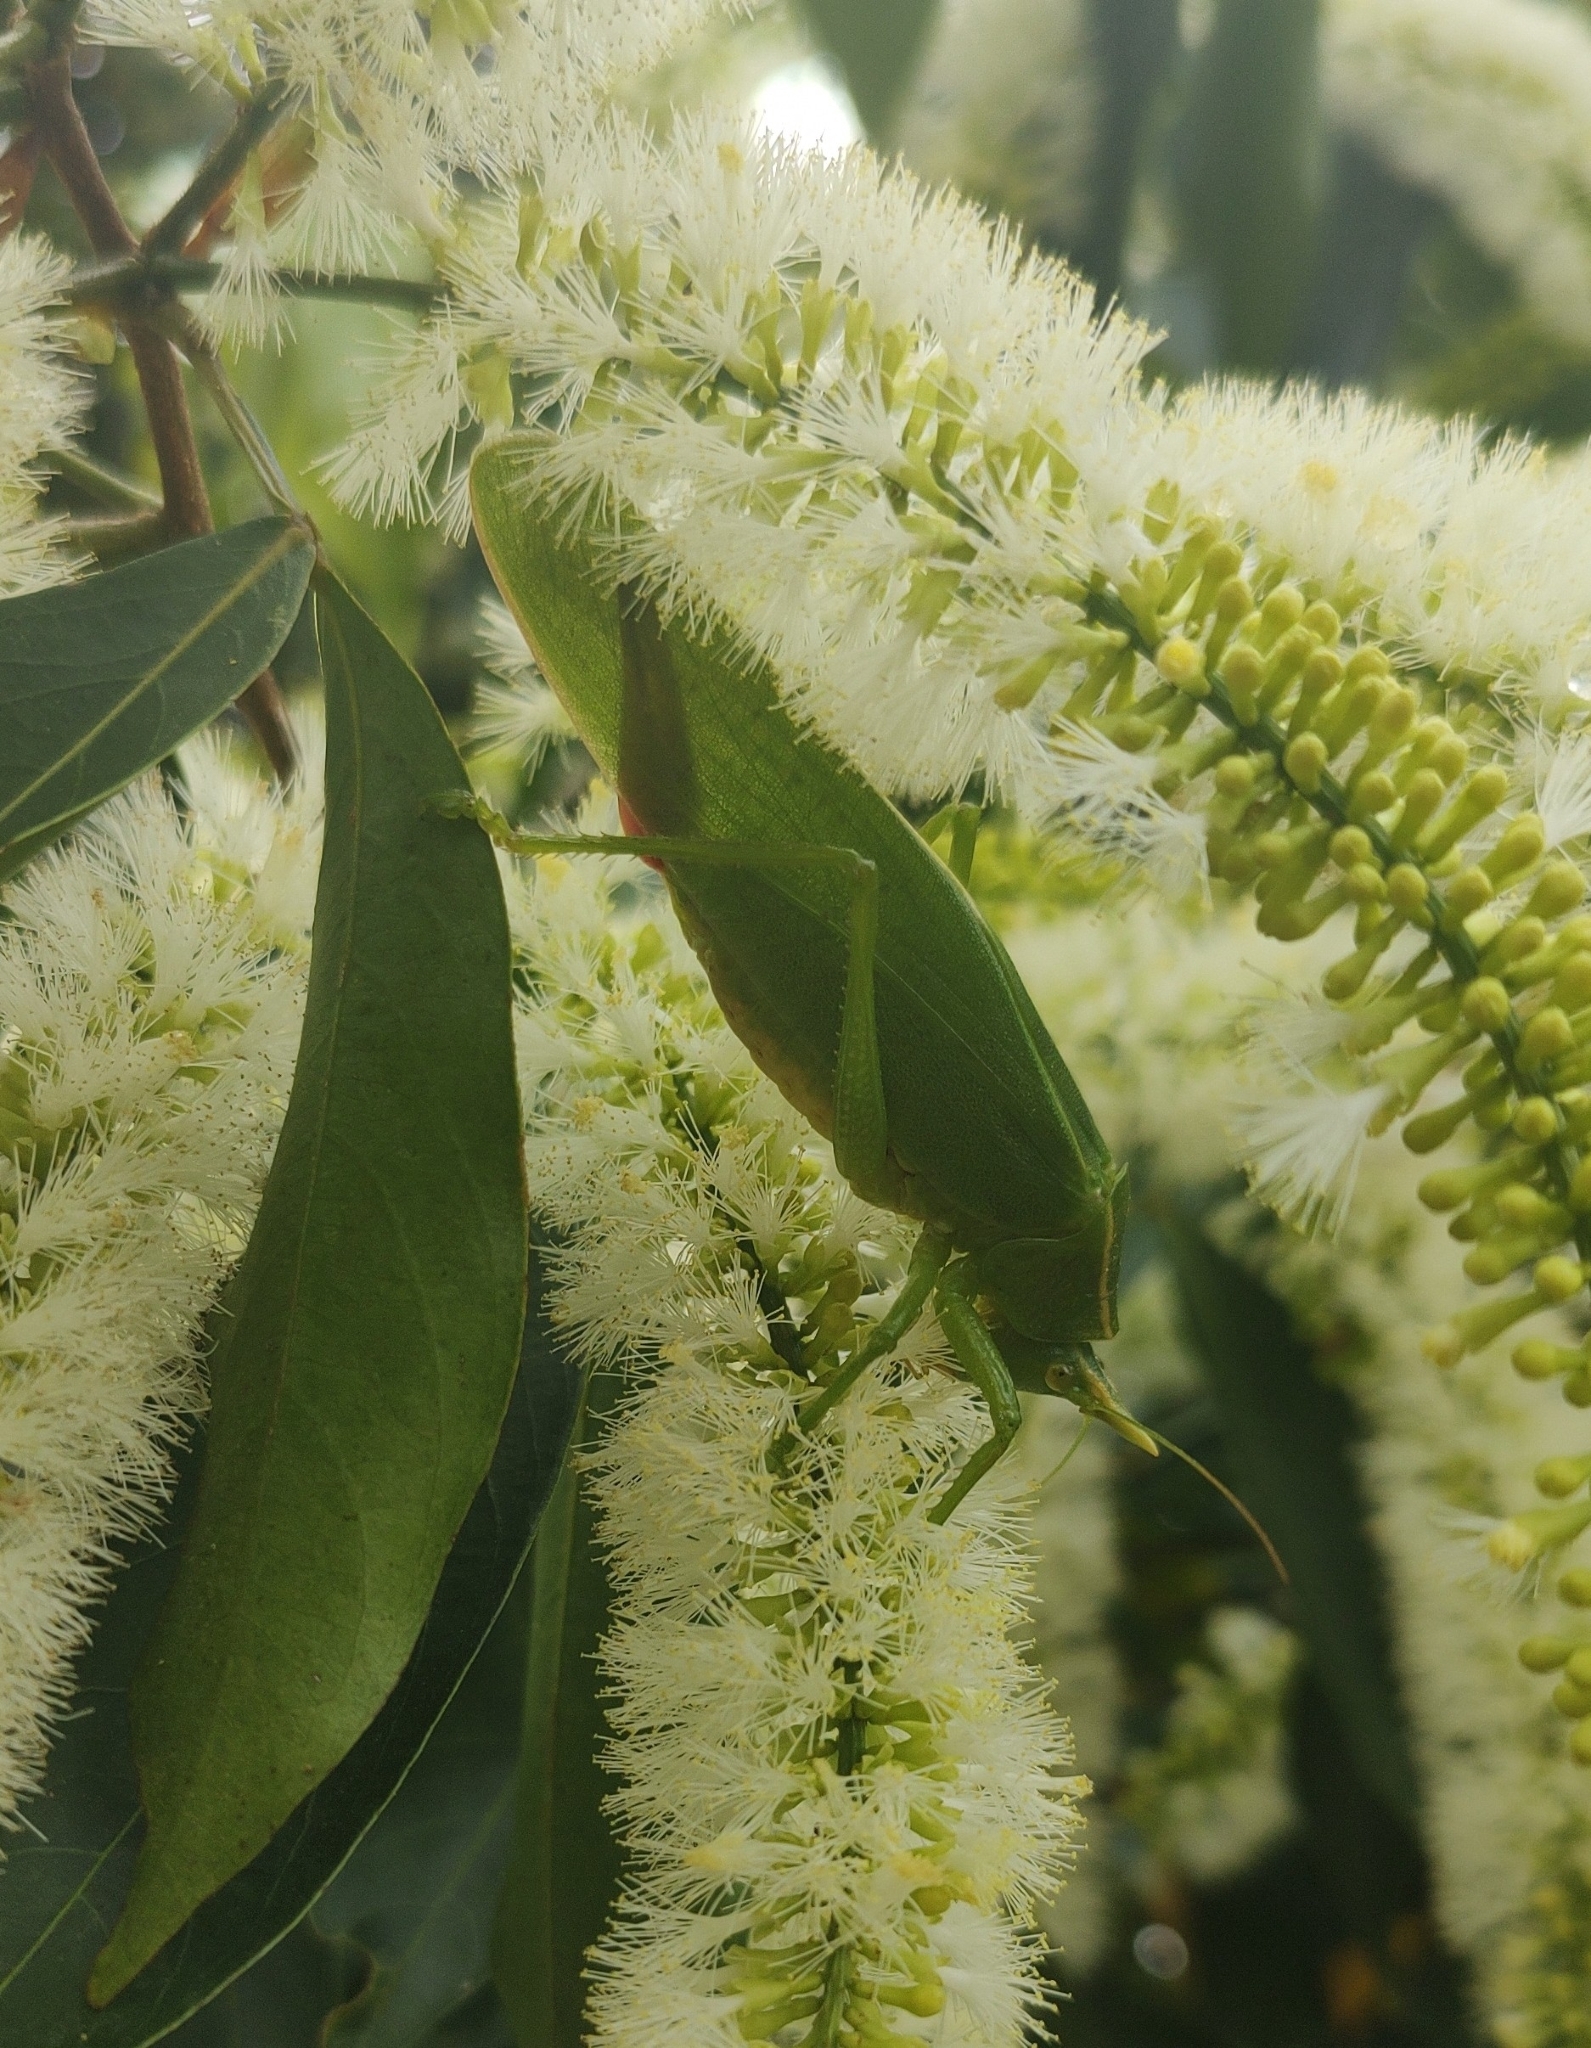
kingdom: Animalia
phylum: Arthropoda
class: Insecta
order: Orthoptera
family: Tettigoniidae
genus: Oxyprora
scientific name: Oxyprora flavicornis
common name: Cerrado rhino katydid
